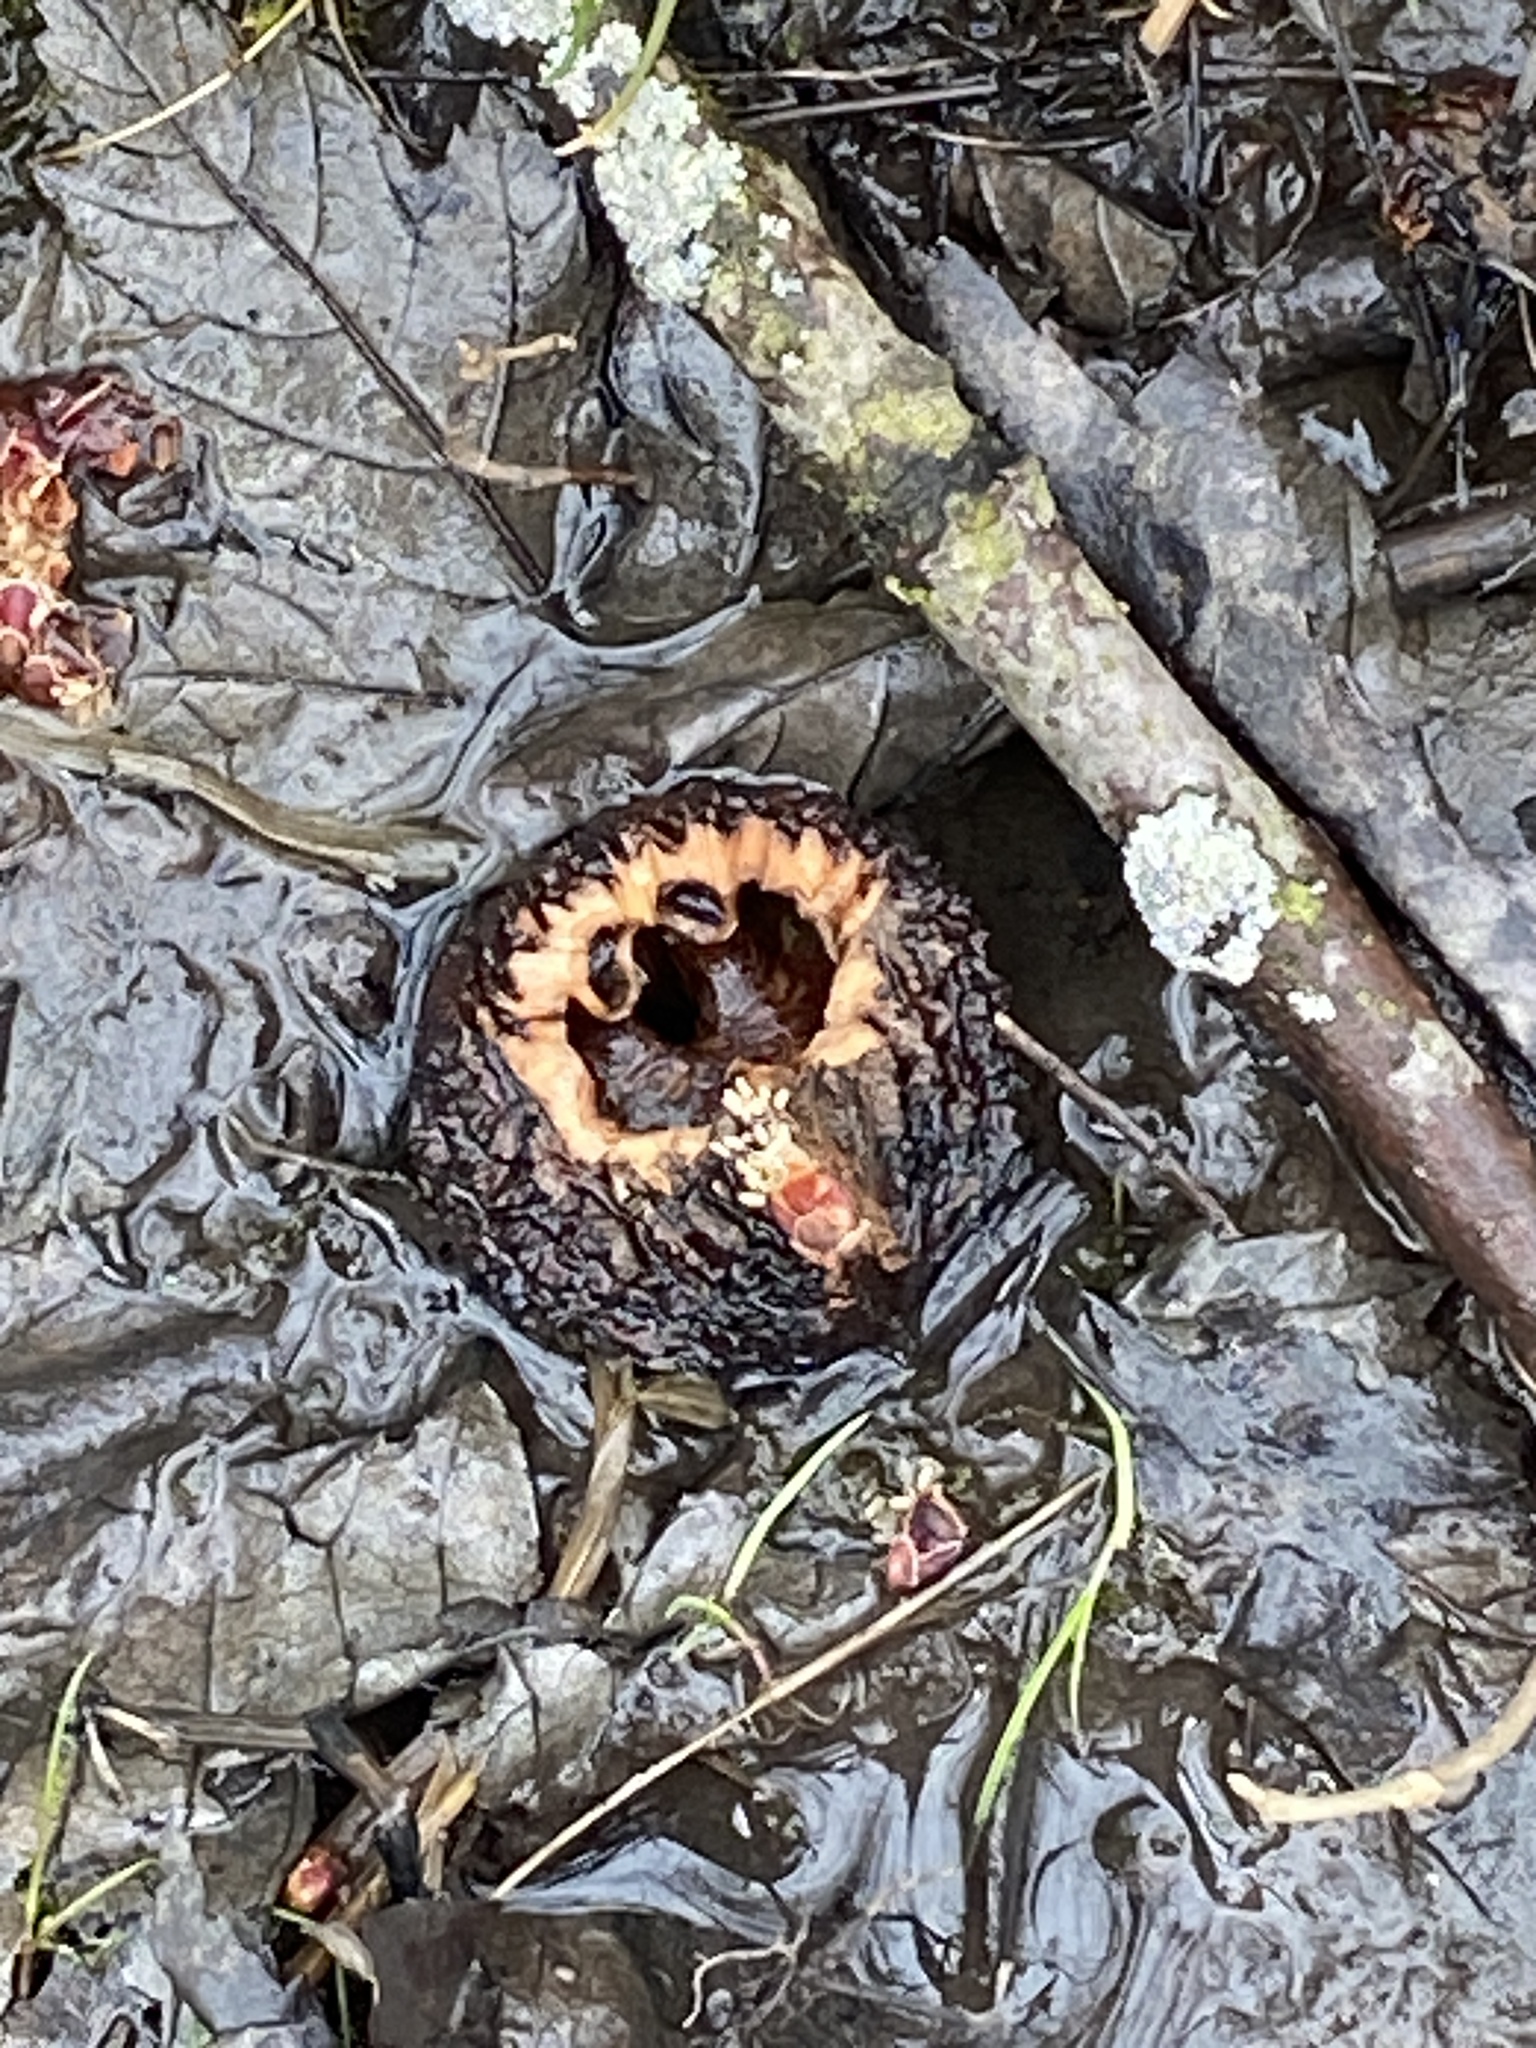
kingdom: Plantae
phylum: Tracheophyta
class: Magnoliopsida
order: Fagales
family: Juglandaceae
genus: Juglans
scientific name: Juglans nigra
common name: Black walnut
